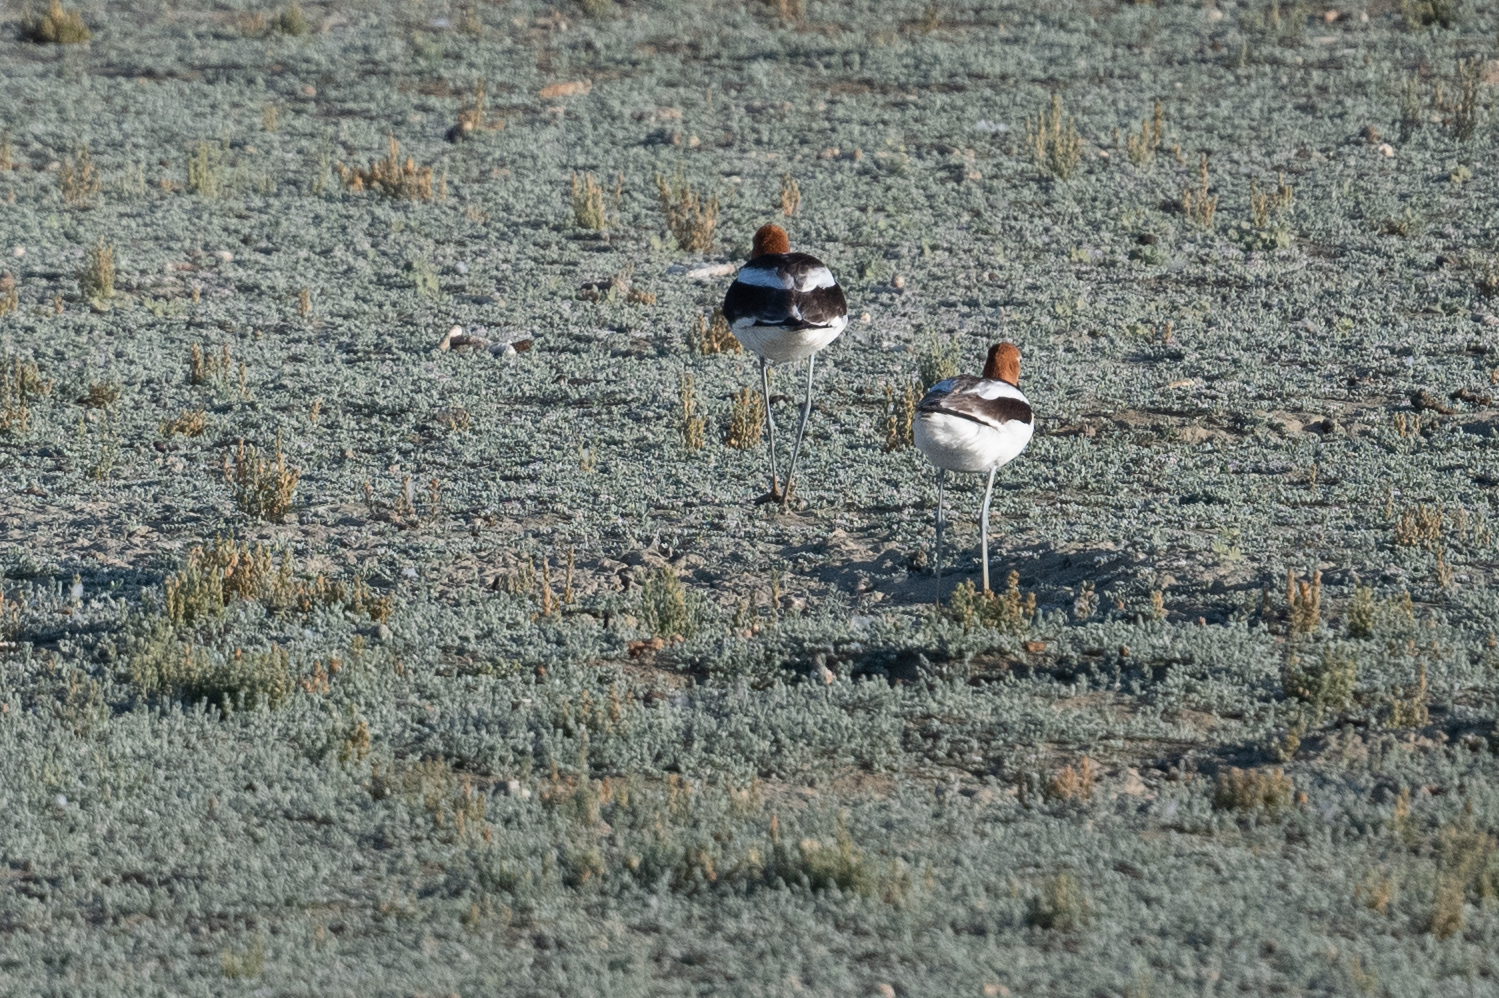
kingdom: Animalia
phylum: Chordata
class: Aves
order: Charadriiformes
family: Recurvirostridae
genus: Recurvirostra
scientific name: Recurvirostra americana
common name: American avocet
